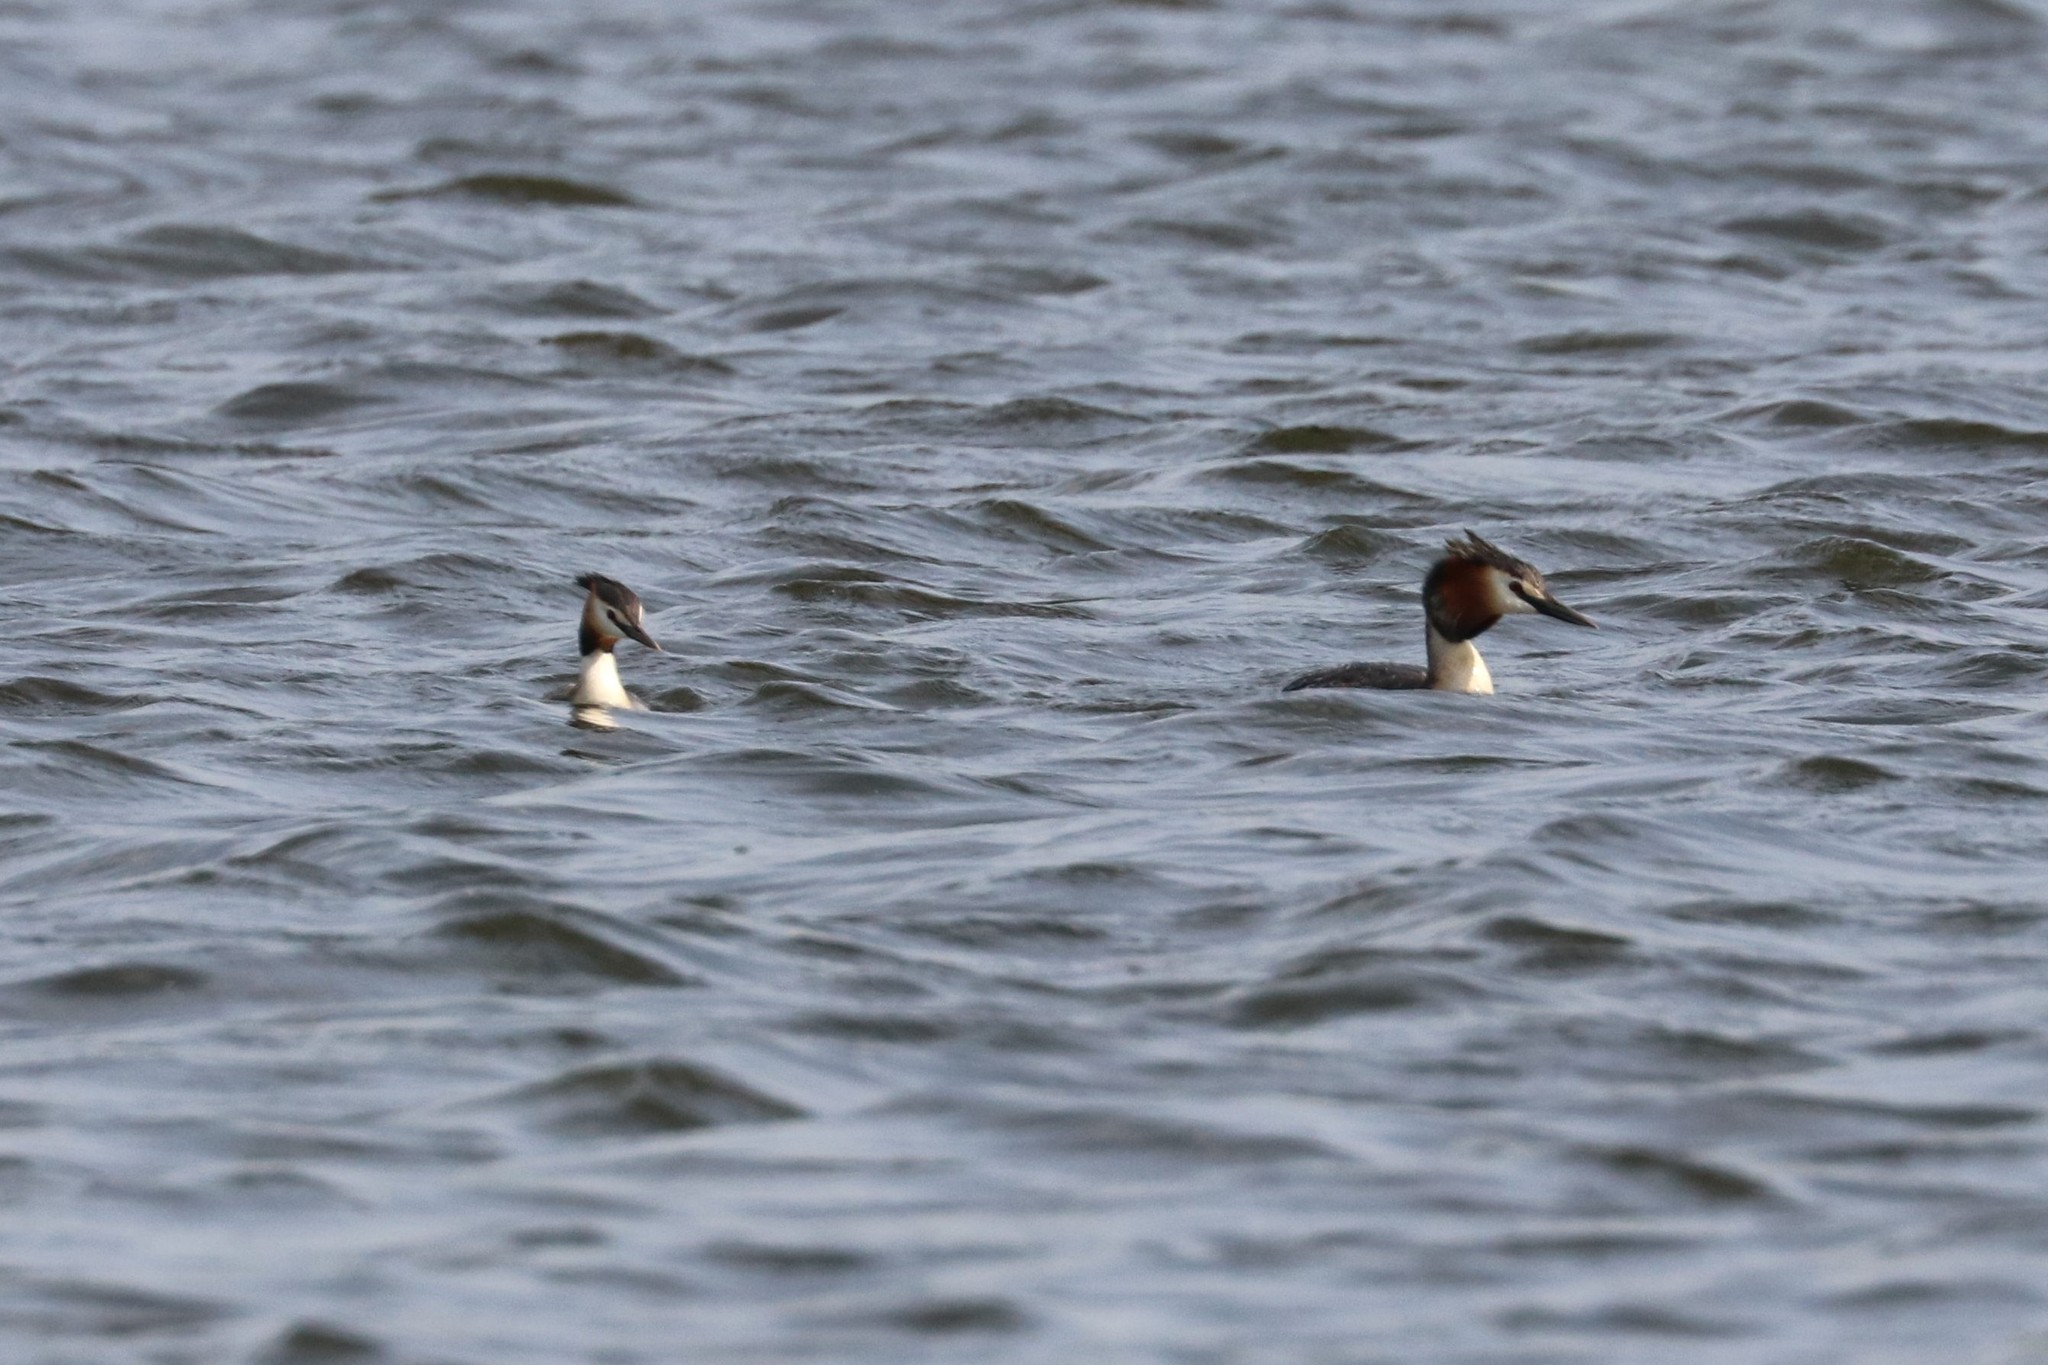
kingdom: Animalia
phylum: Chordata
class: Aves
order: Podicipediformes
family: Podicipedidae
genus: Podiceps
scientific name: Podiceps cristatus
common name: Great crested grebe
